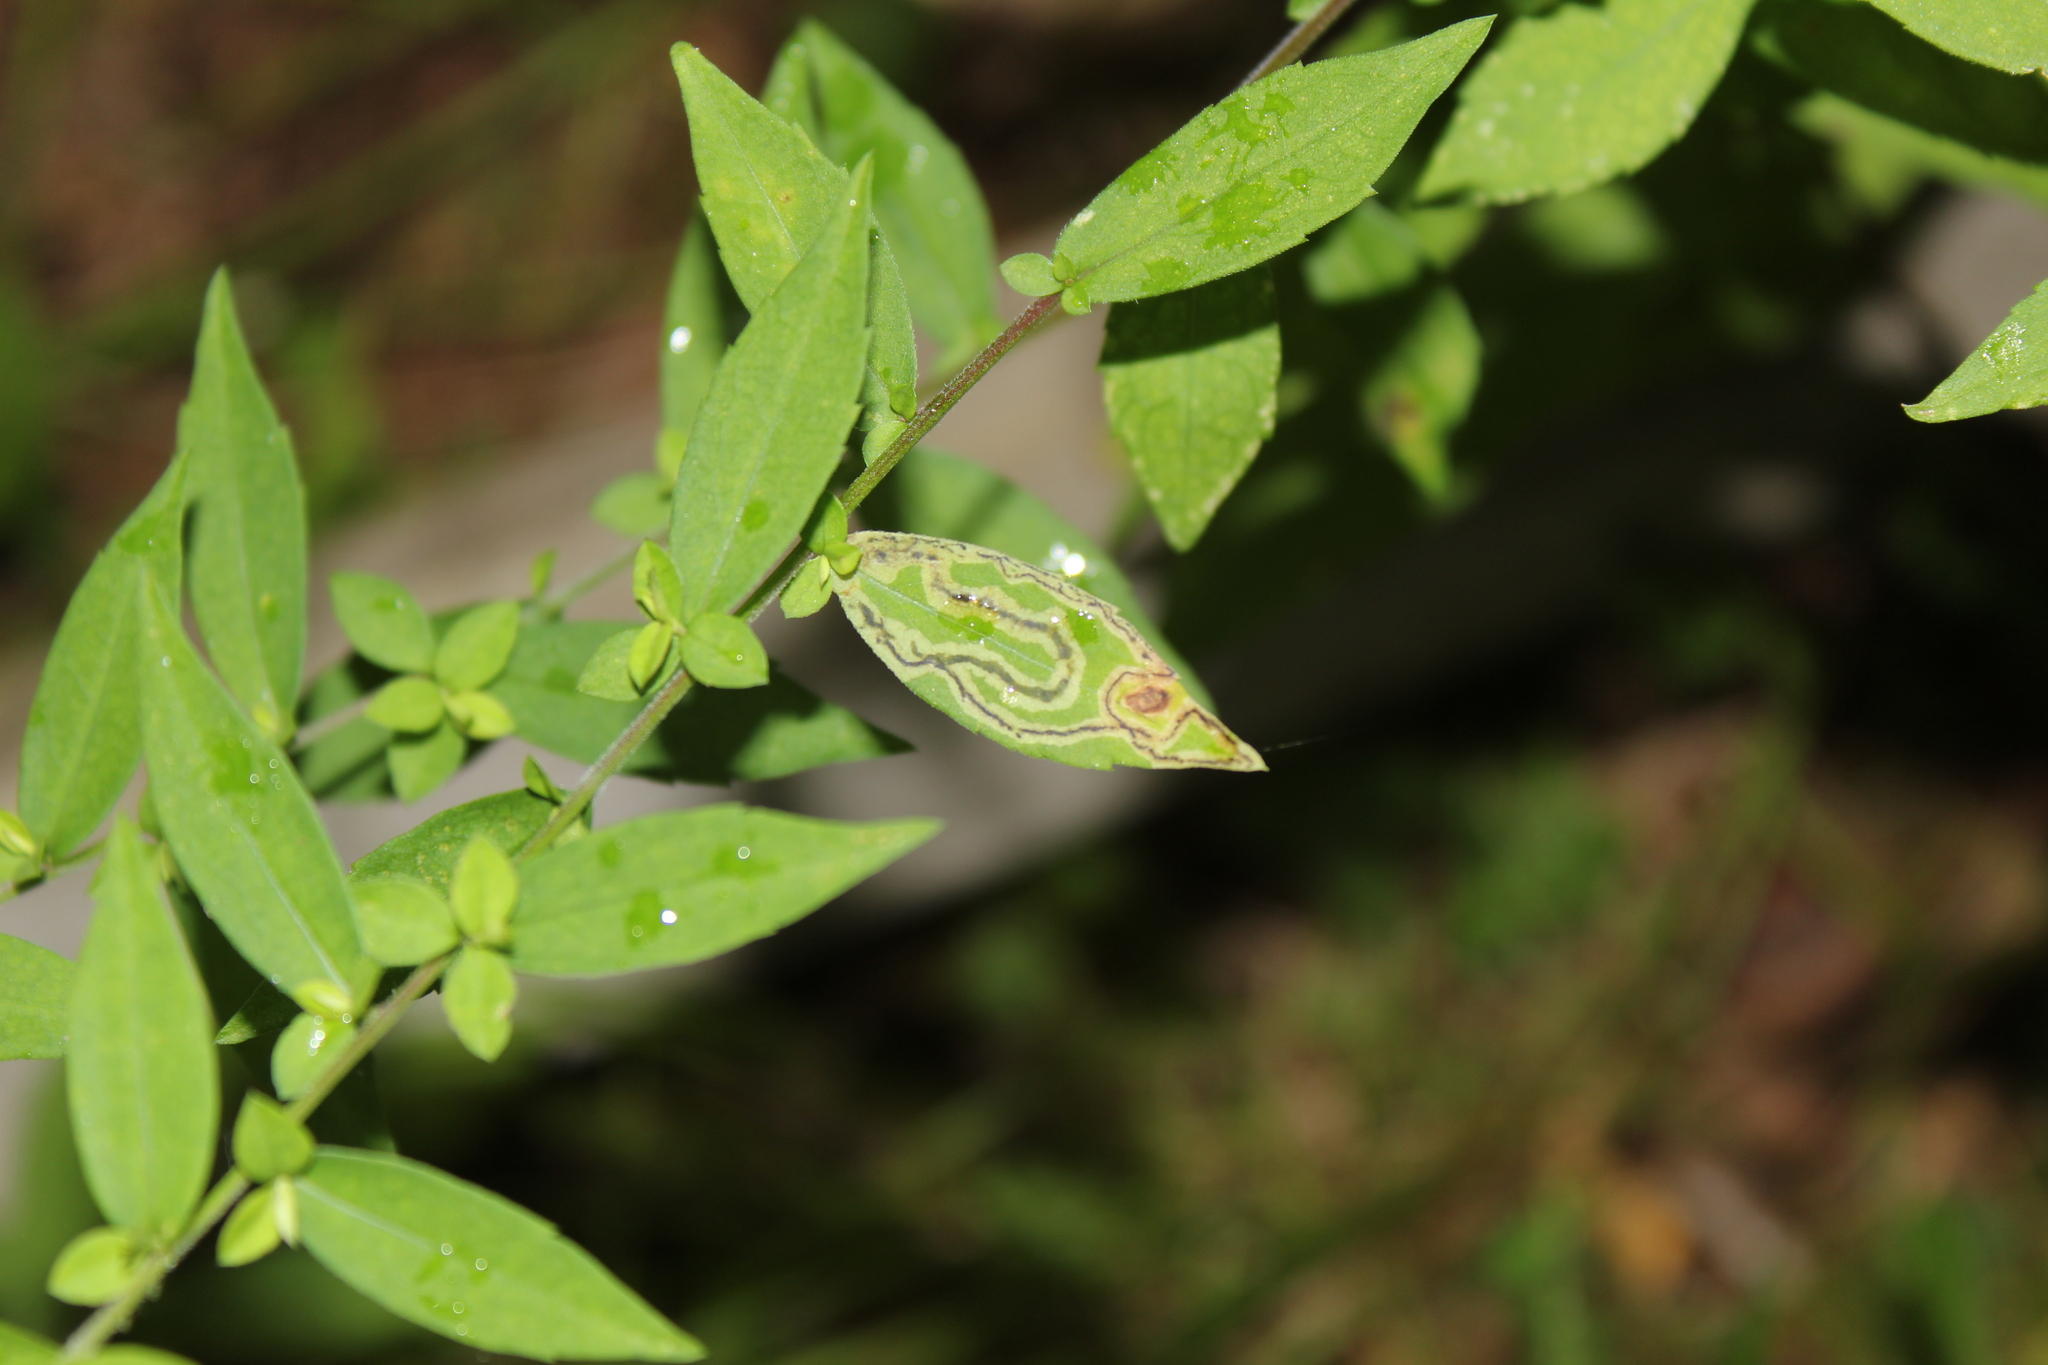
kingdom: Animalia
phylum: Arthropoda
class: Insecta
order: Diptera
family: Agromyzidae
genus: Liriomyza
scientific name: Liriomyza eupatorii
